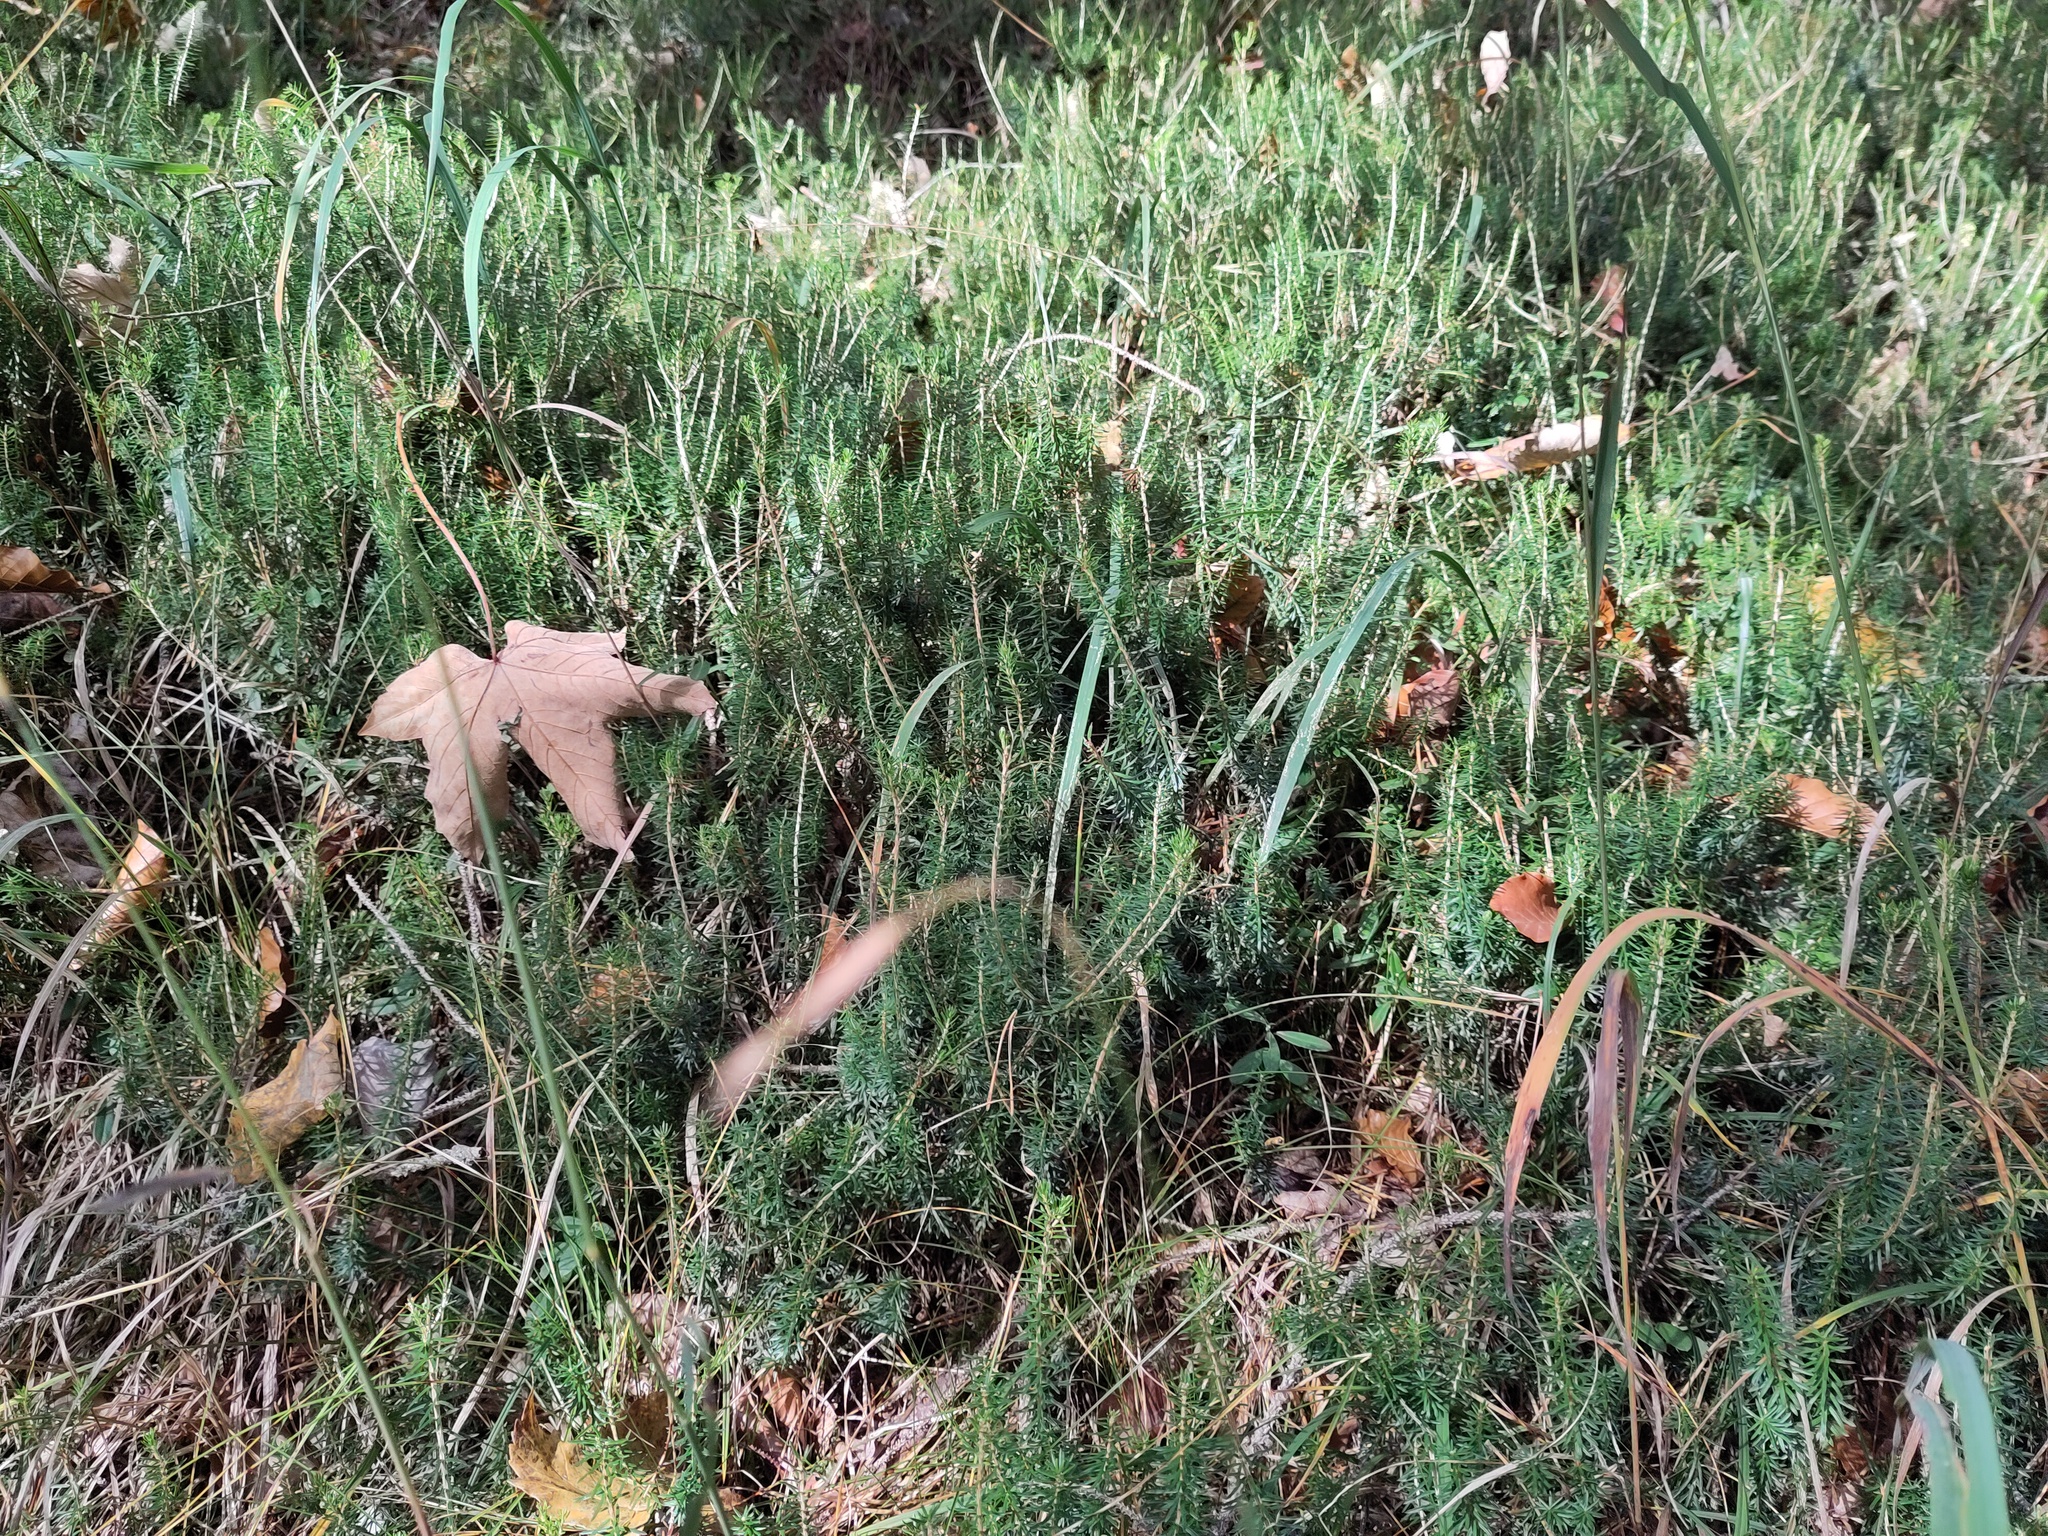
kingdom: Plantae
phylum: Tracheophyta
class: Magnoliopsida
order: Ericales
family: Ericaceae
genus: Erica
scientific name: Erica carnea
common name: Winter heath
